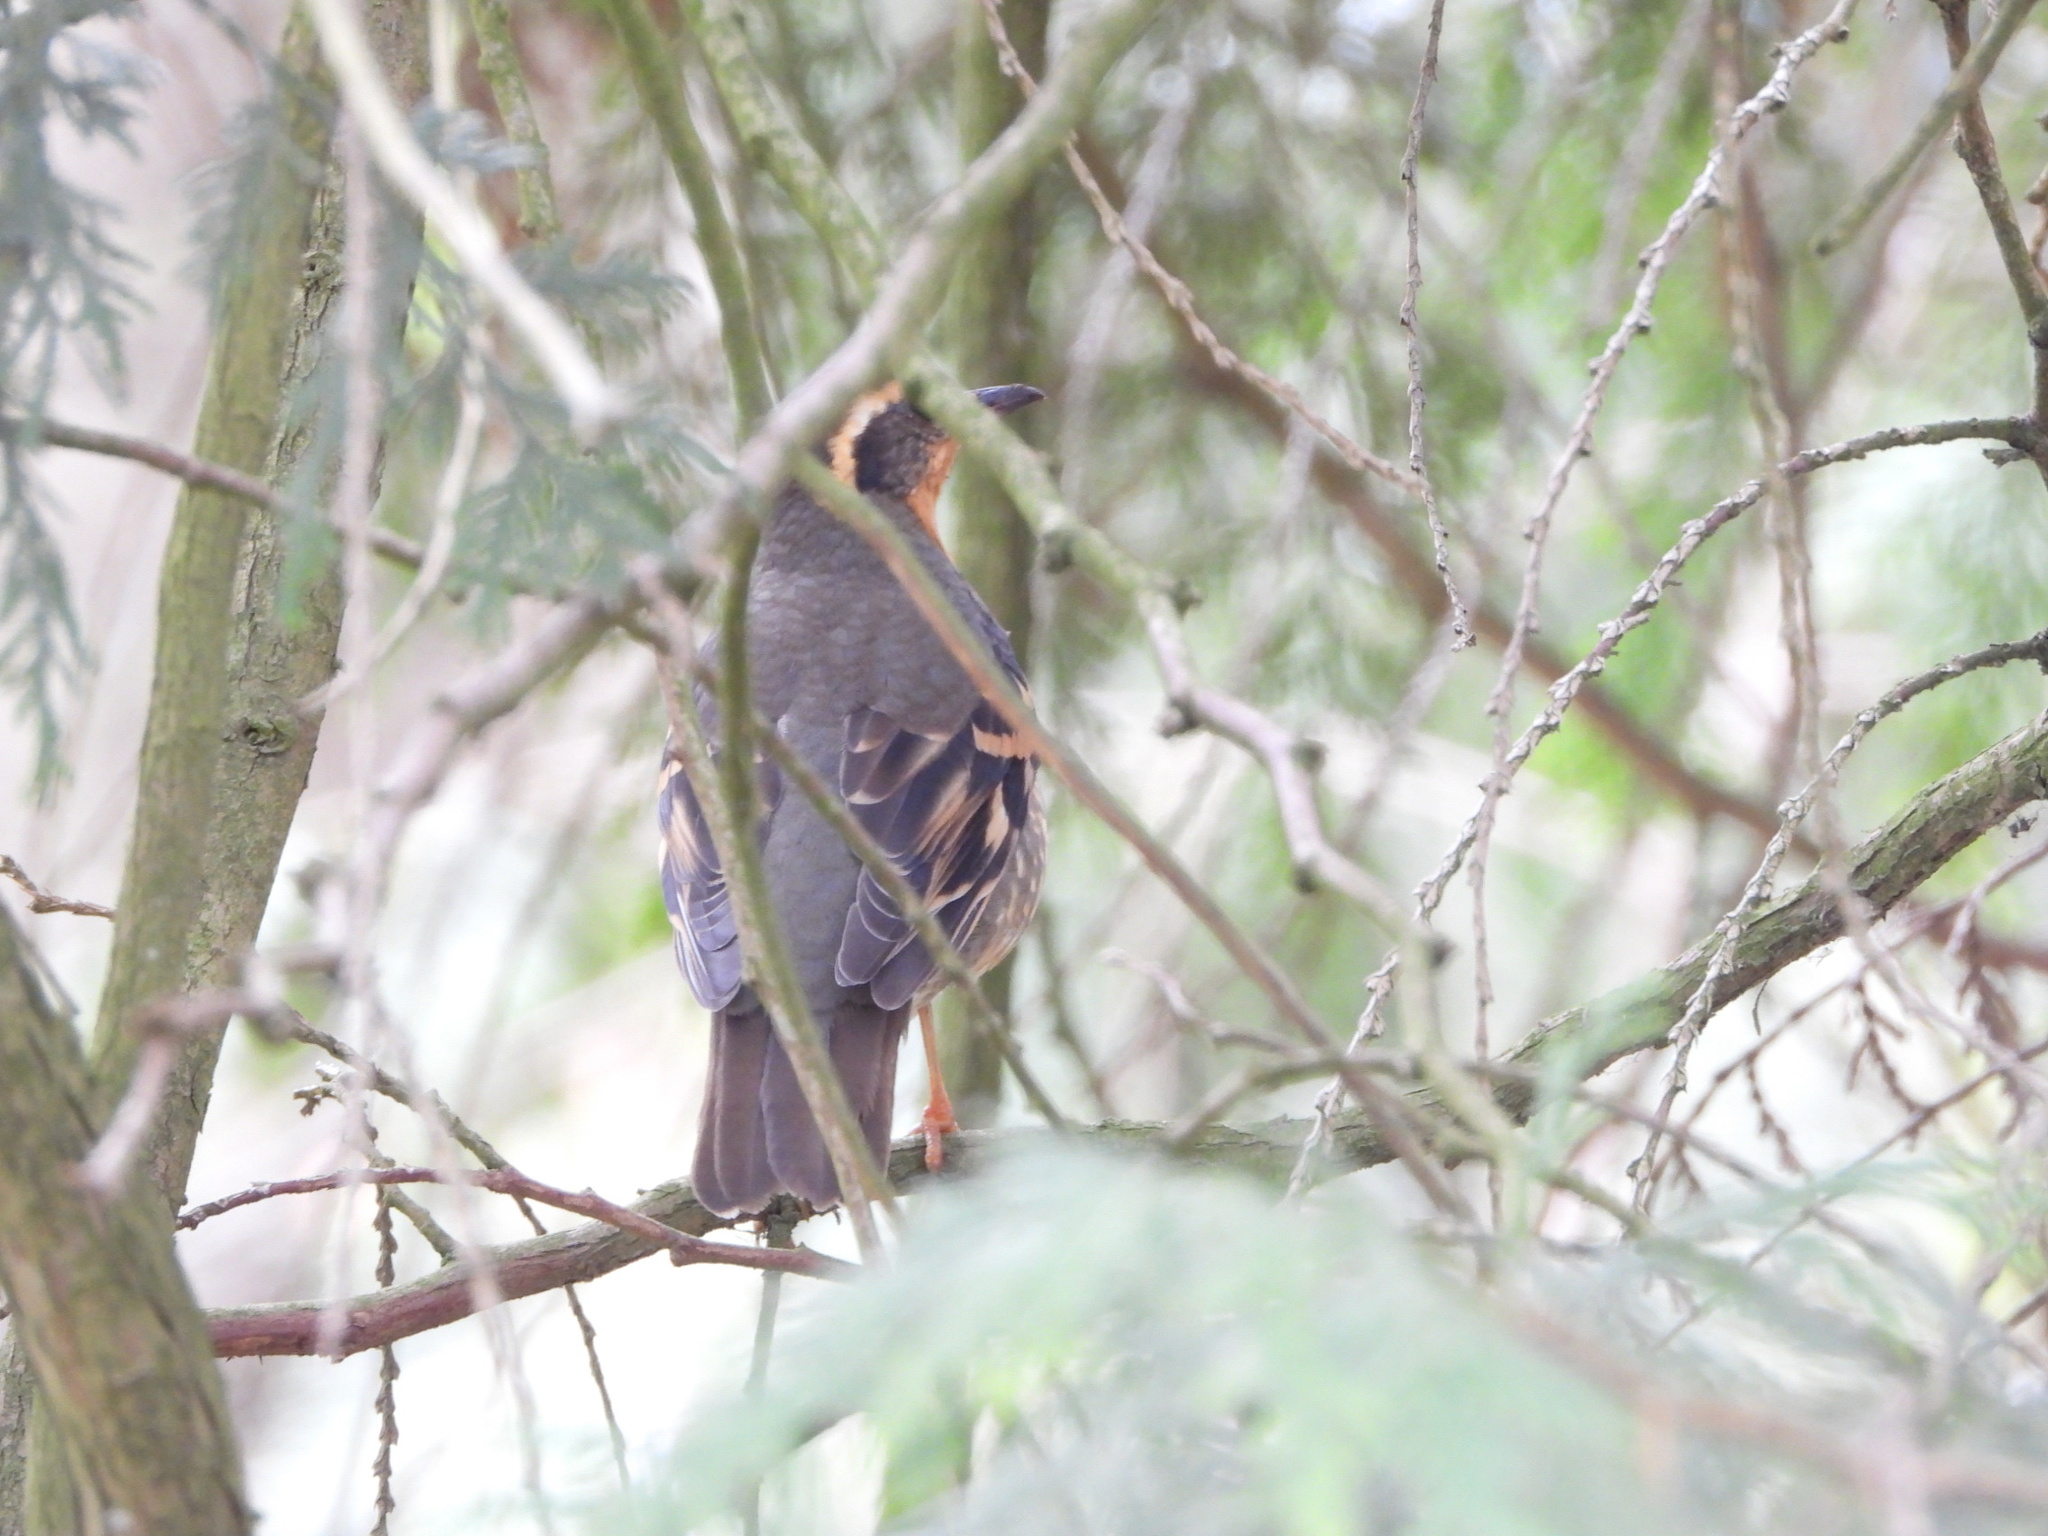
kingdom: Animalia
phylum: Chordata
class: Aves
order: Passeriformes
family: Turdidae
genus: Ixoreus
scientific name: Ixoreus naevius
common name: Varied thrush
